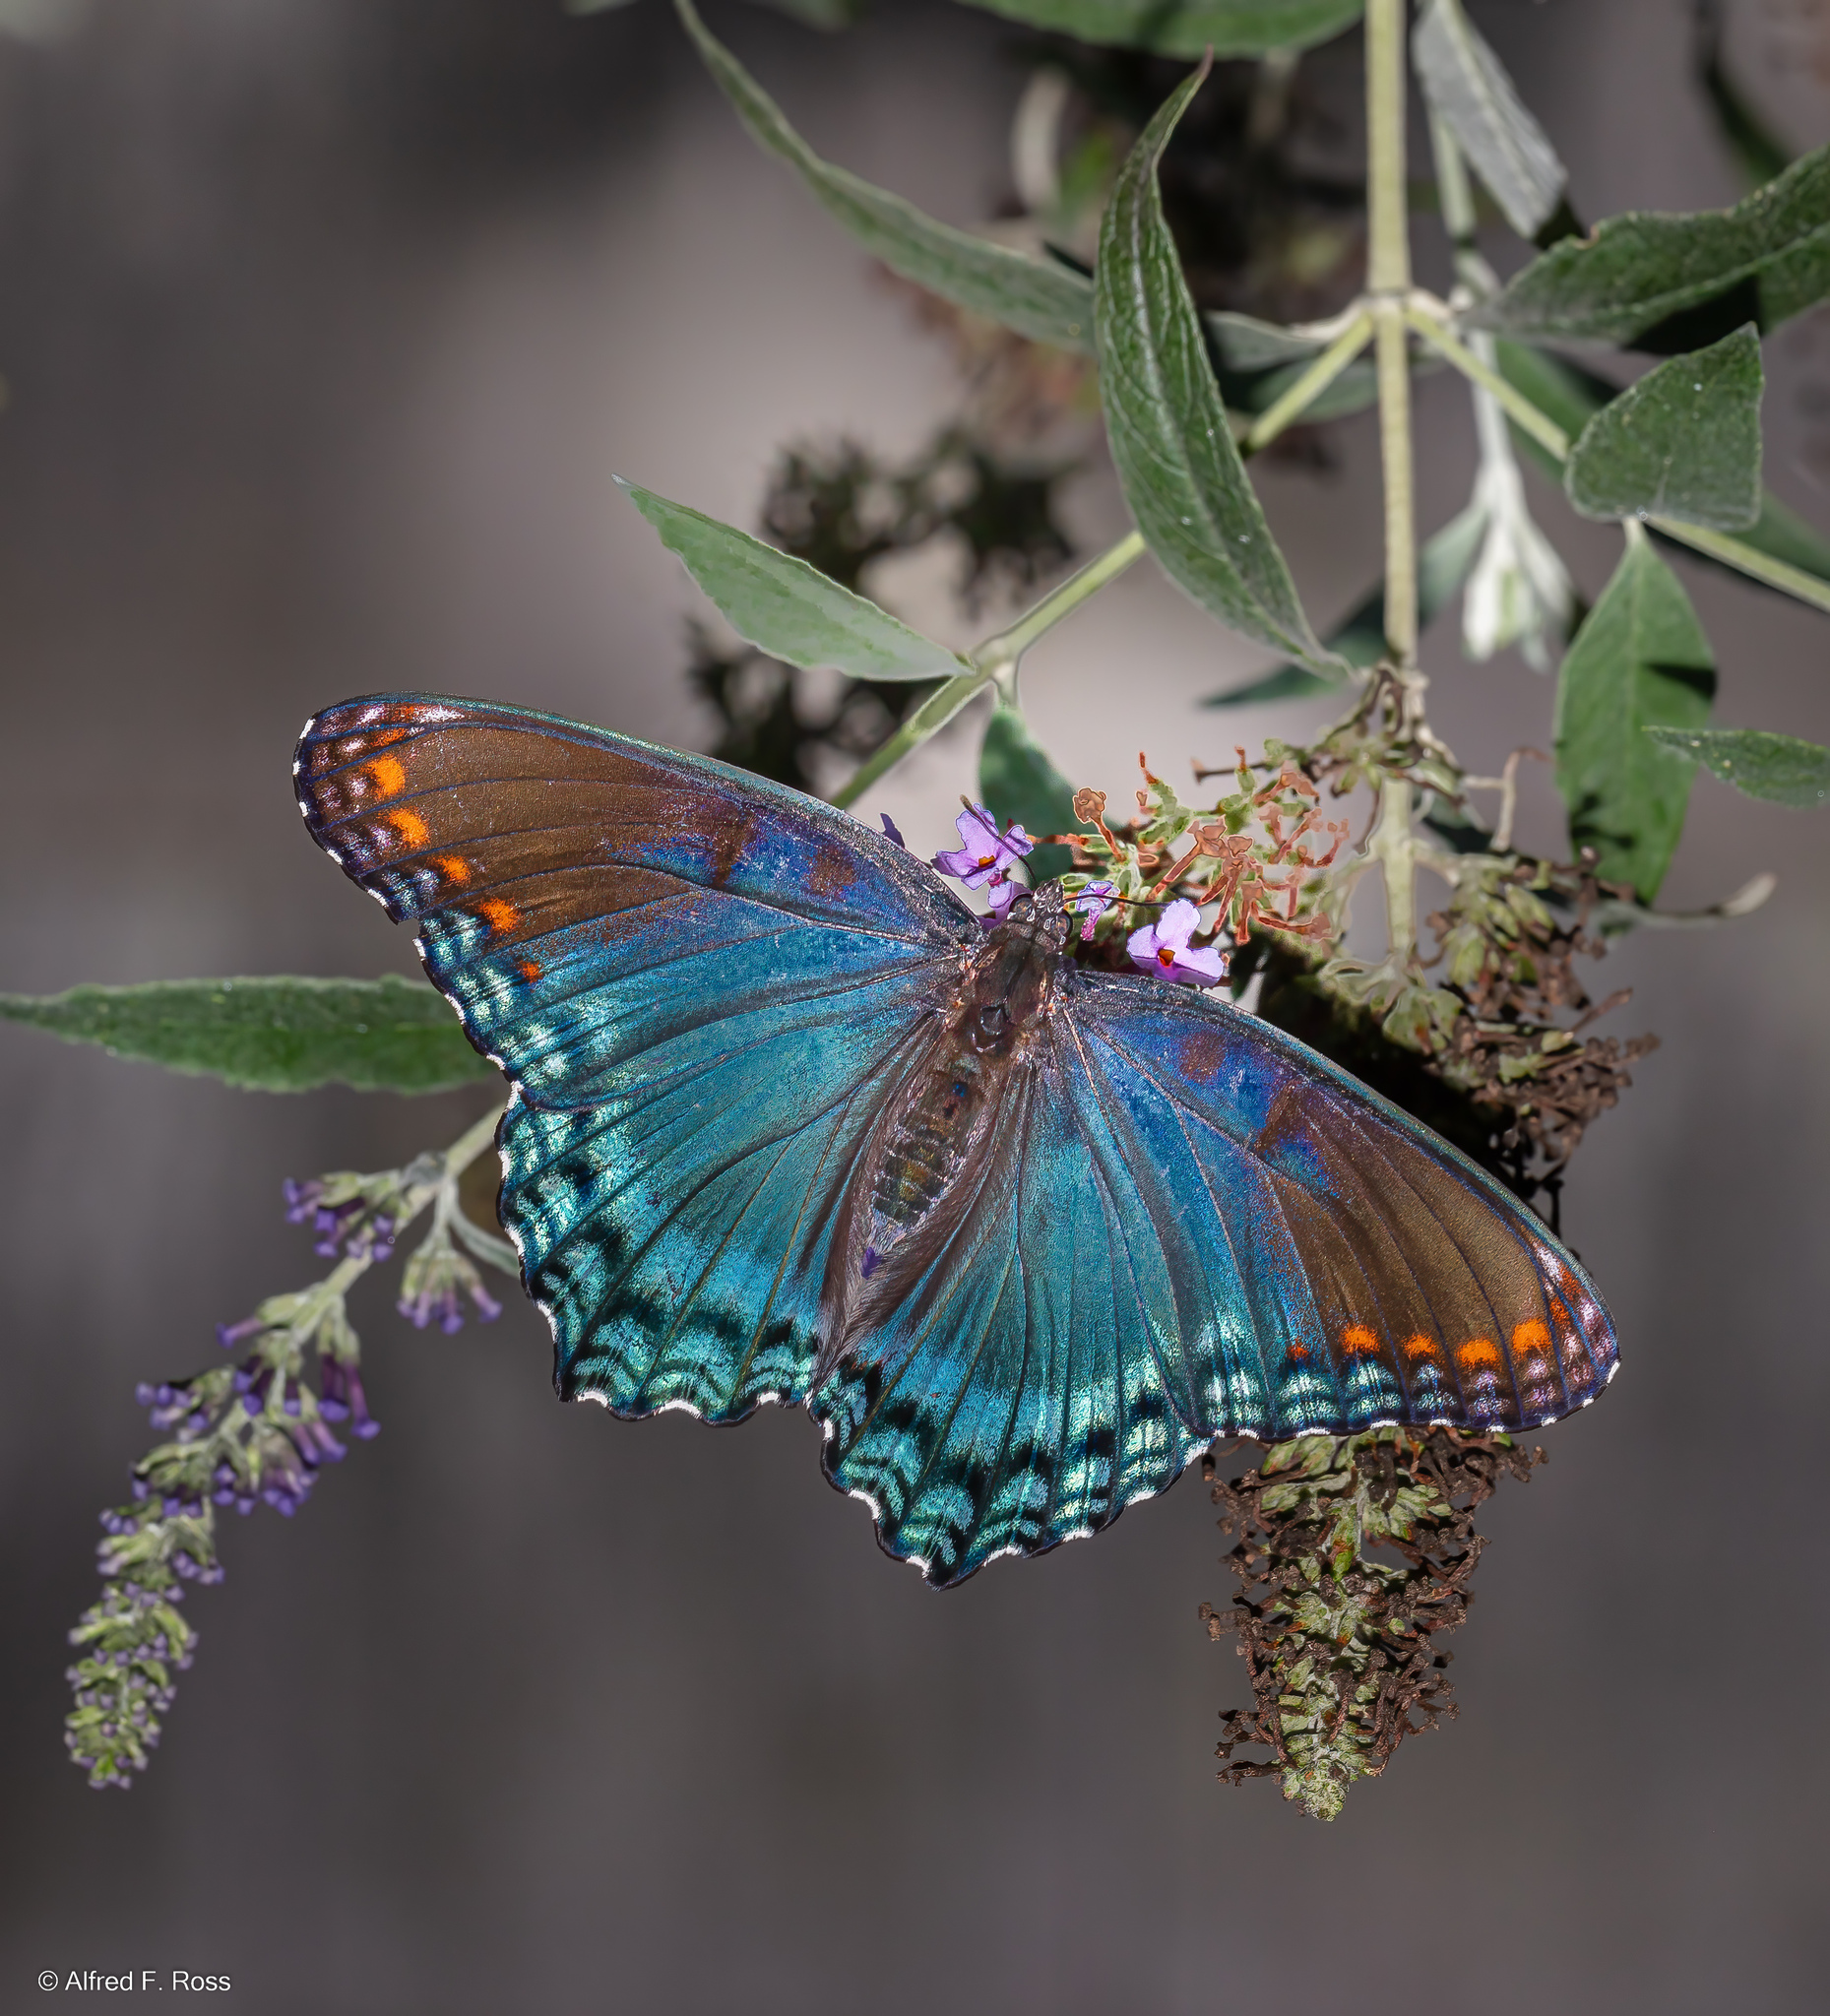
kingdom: Animalia
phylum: Arthropoda
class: Insecta
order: Lepidoptera
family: Nymphalidae
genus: Limenitis
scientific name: Limenitis astyanax
